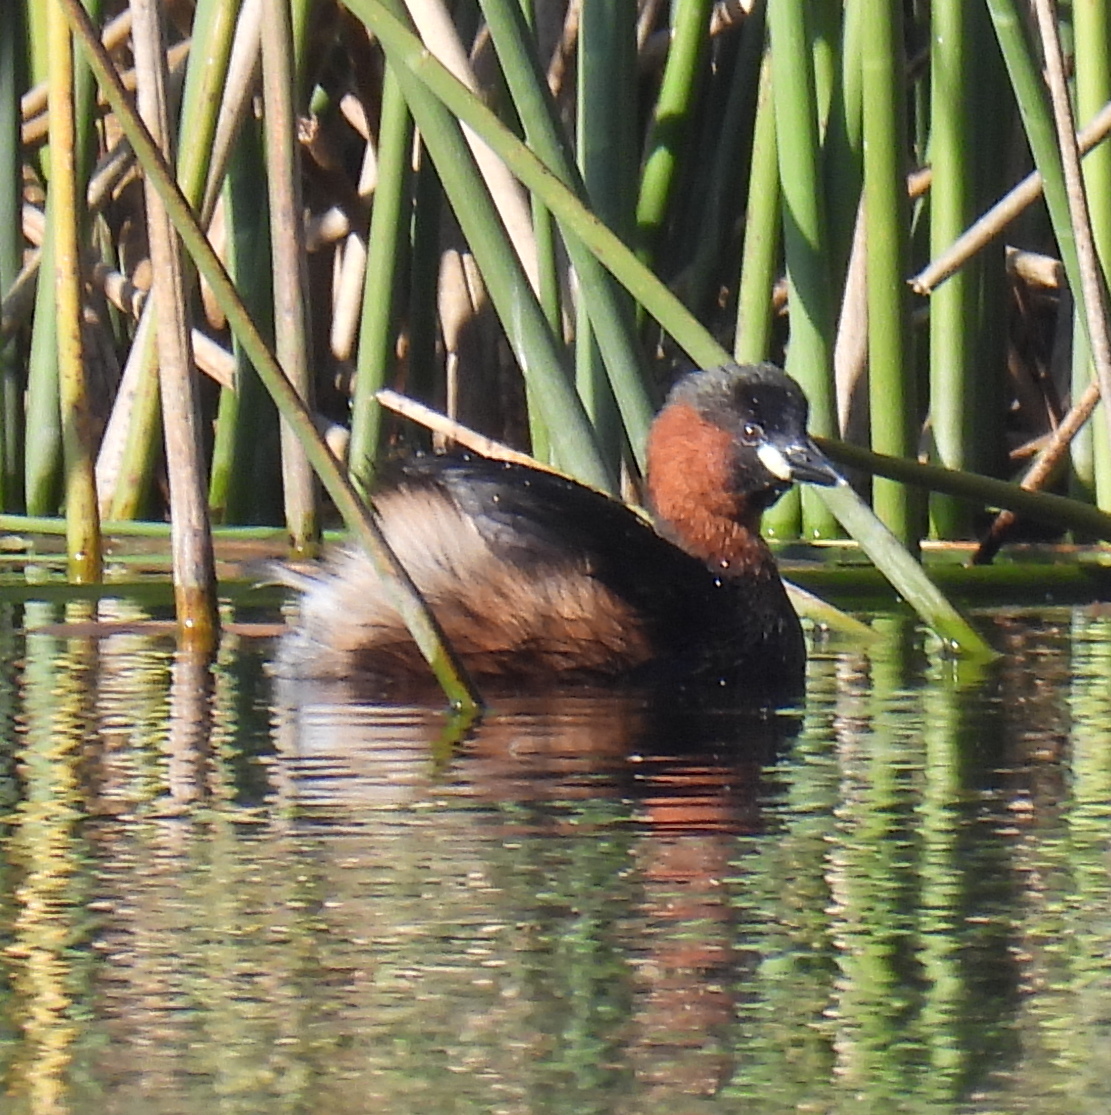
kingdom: Animalia
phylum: Chordata
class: Aves
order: Podicipediformes
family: Podicipedidae
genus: Tachybaptus
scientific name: Tachybaptus ruficollis
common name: Little grebe
